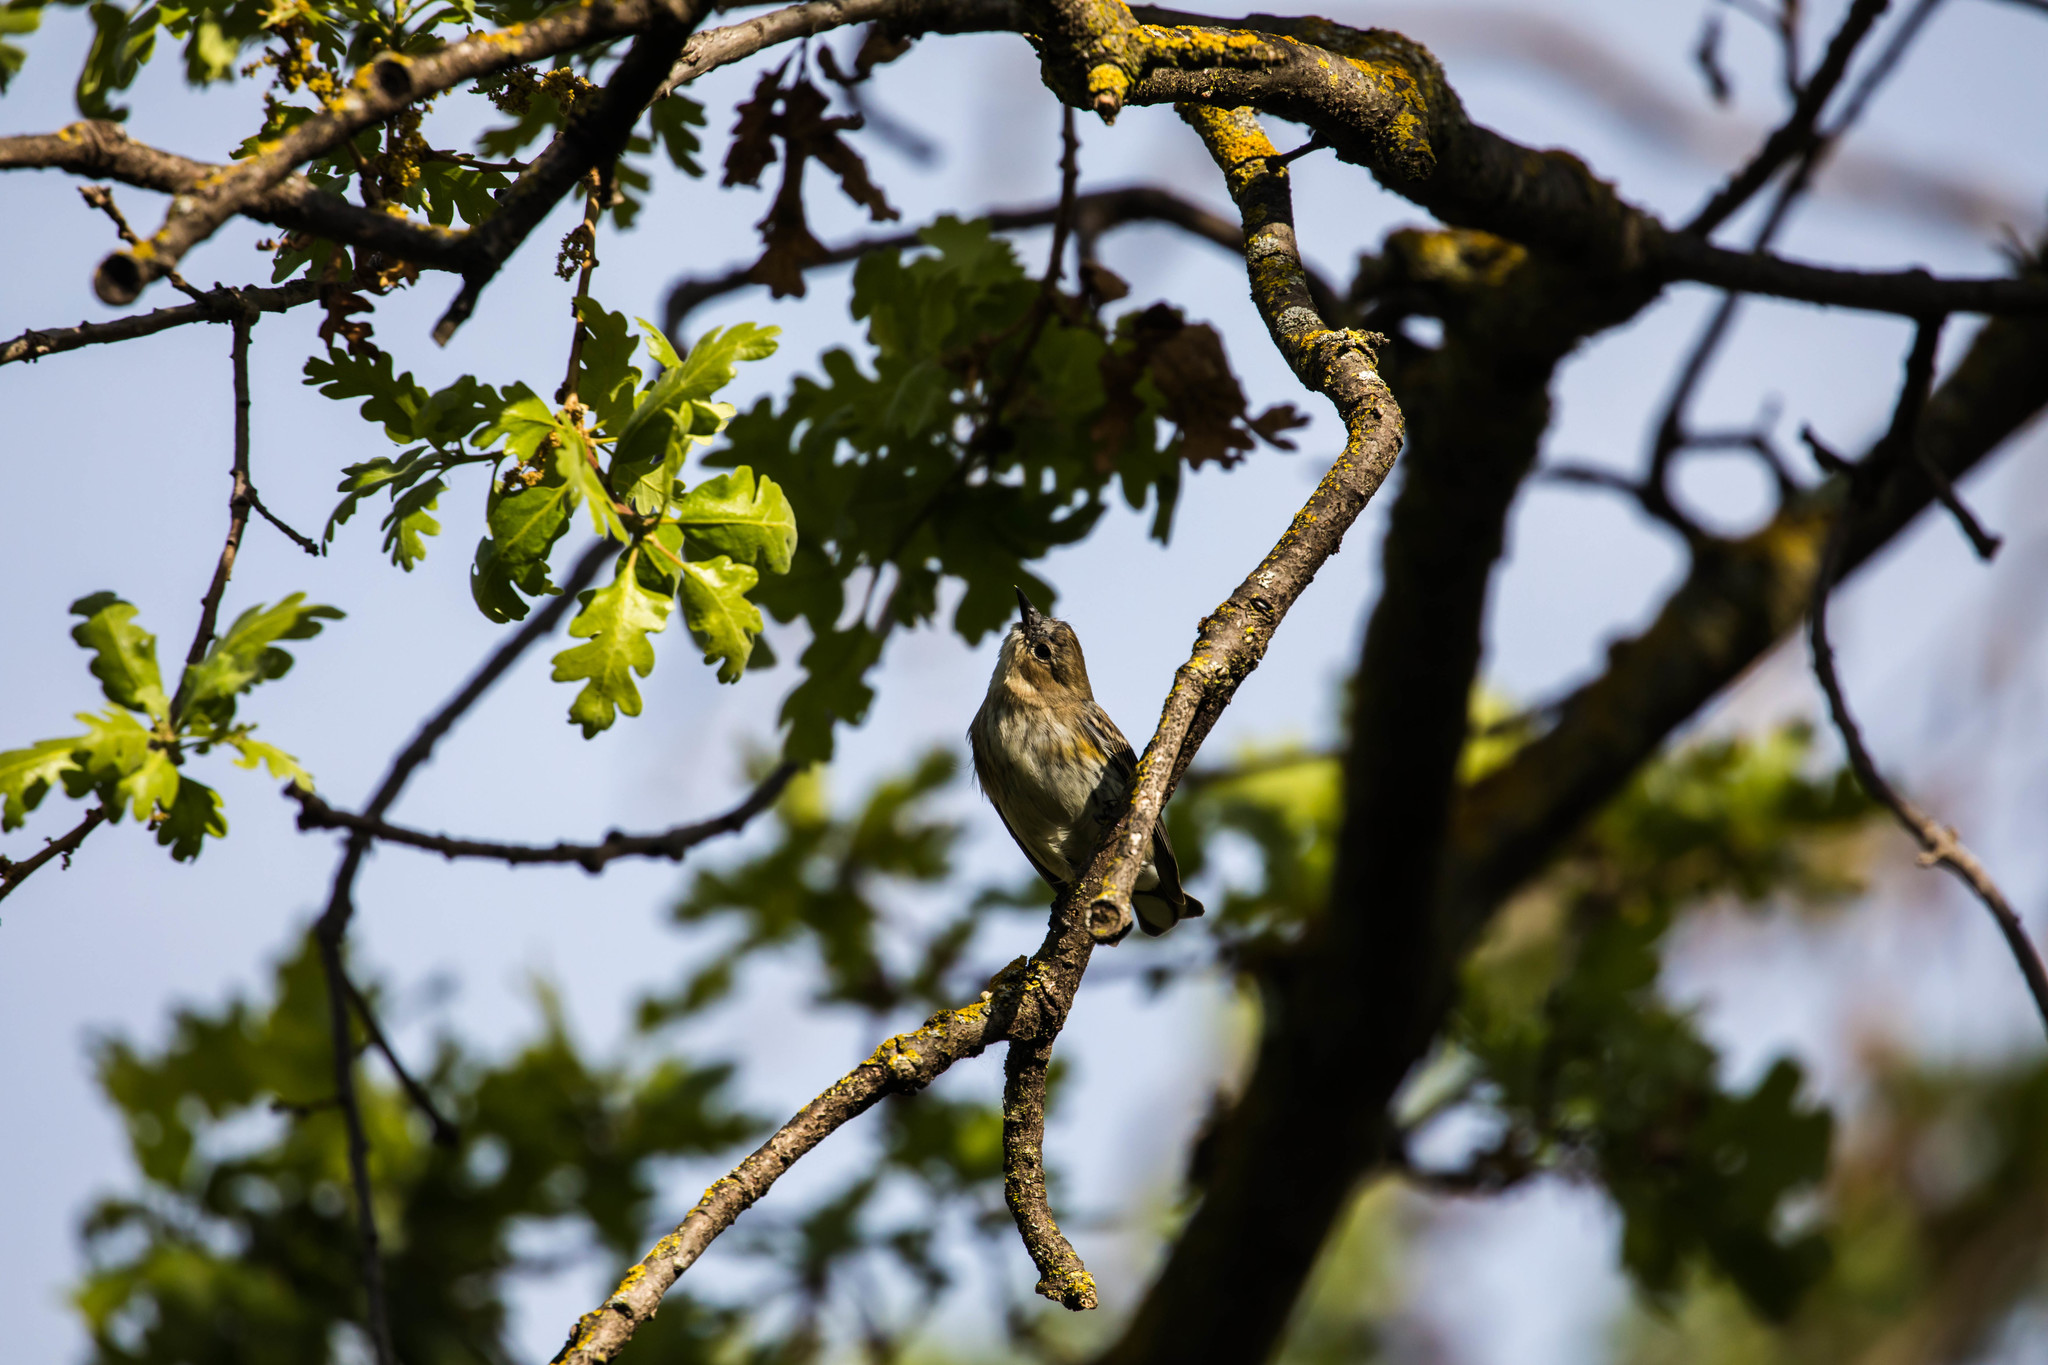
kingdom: Animalia
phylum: Chordata
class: Aves
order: Passeriformes
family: Parulidae
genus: Setophaga
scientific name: Setophaga coronata
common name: Myrtle warbler
